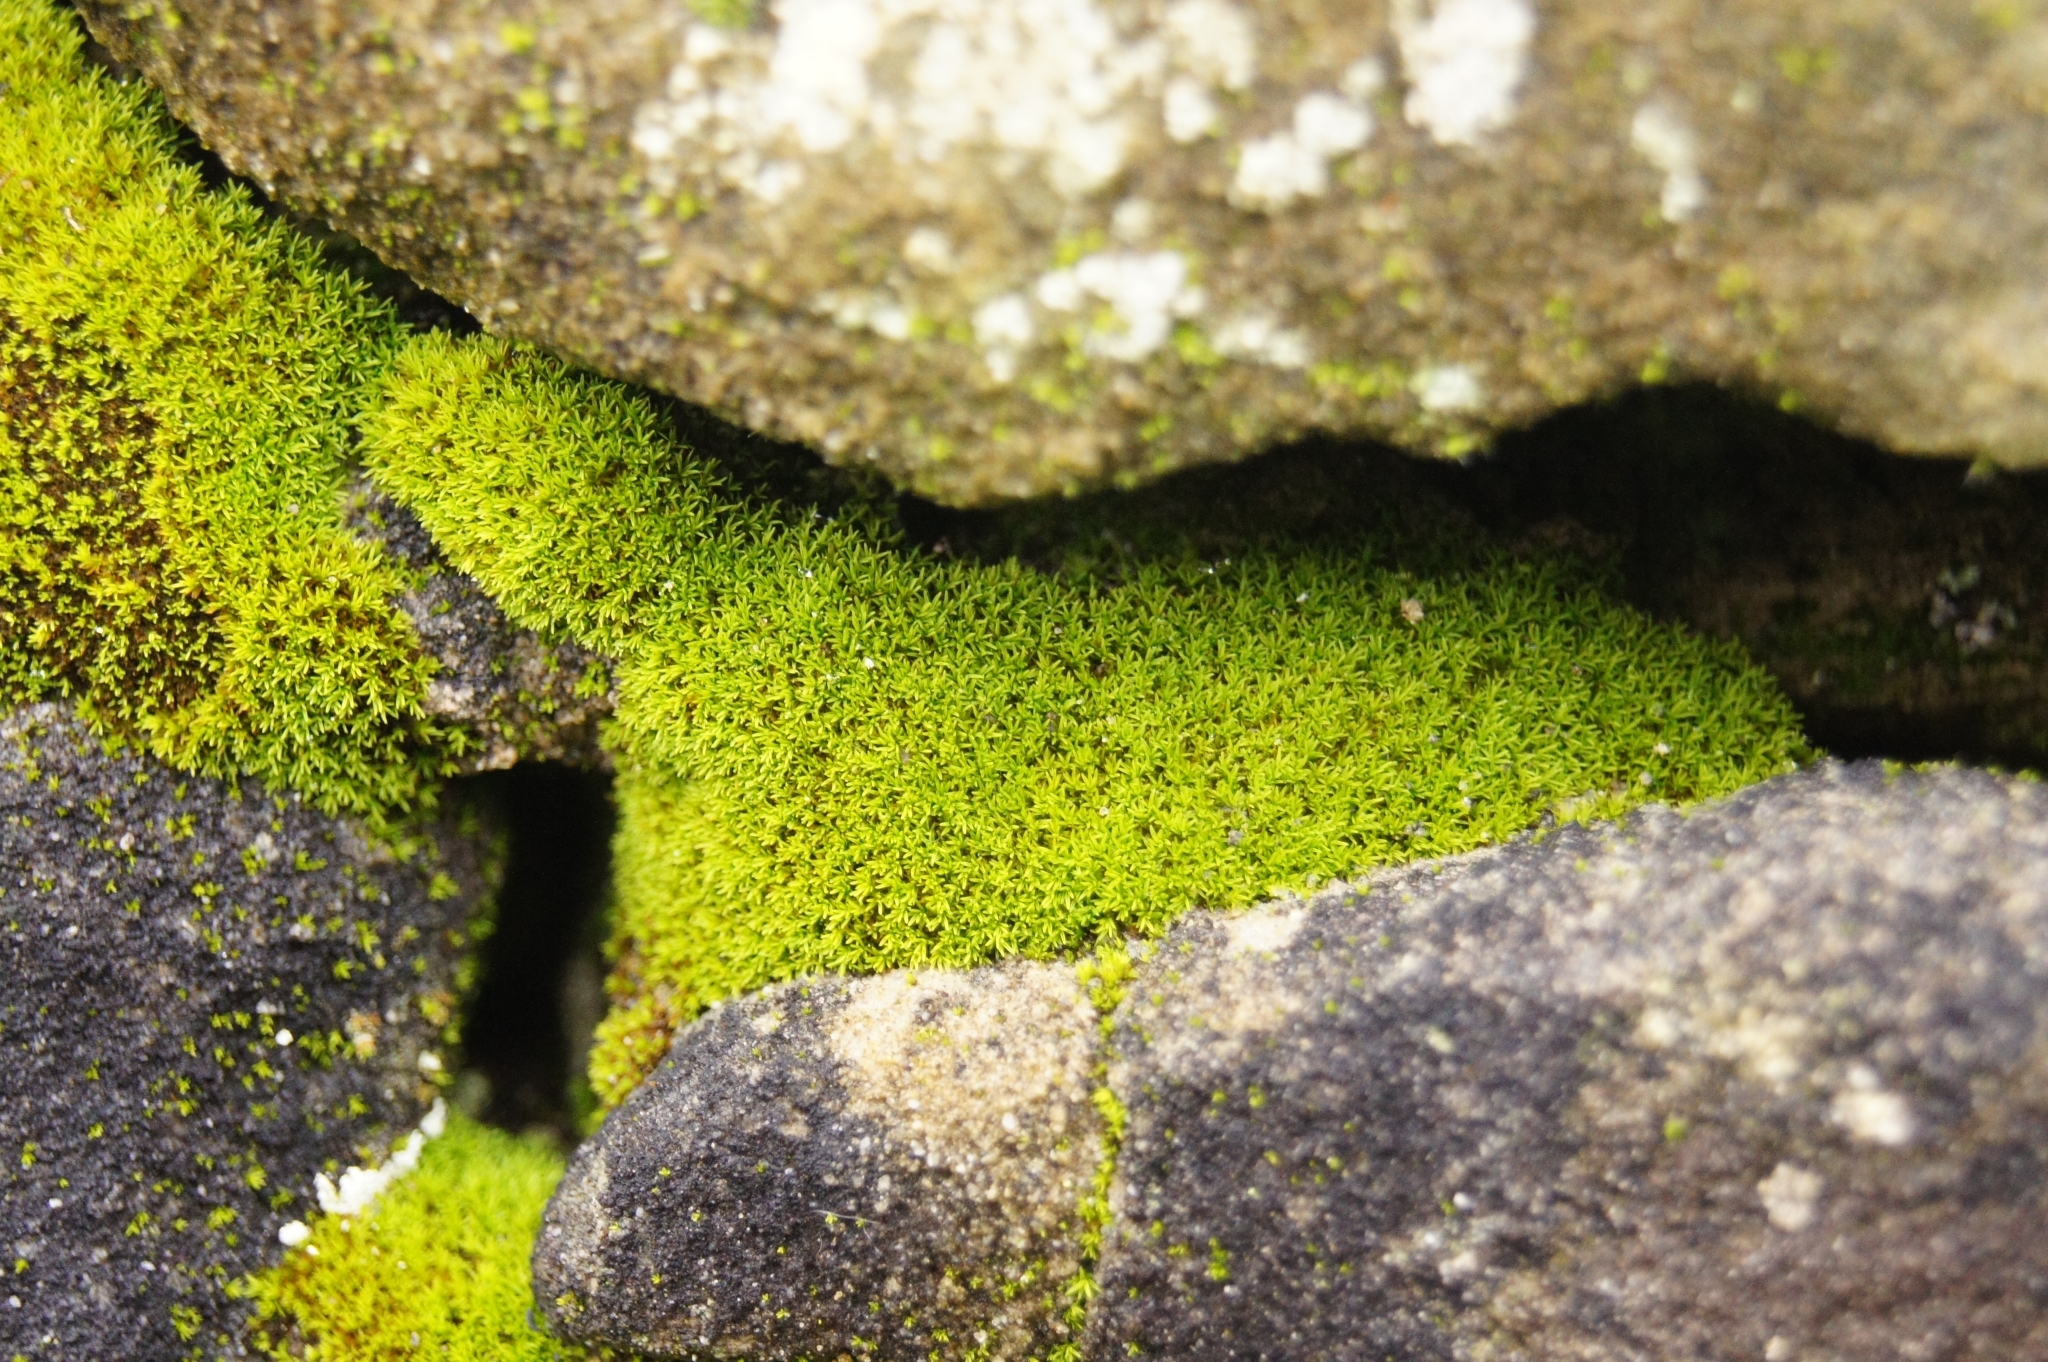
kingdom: Plantae
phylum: Bryophyta
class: Bryopsida
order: Pottiales
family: Pottiaceae
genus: Pseudocrossidium
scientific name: Pseudocrossidium revolutum
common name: Revolute beard-moss
